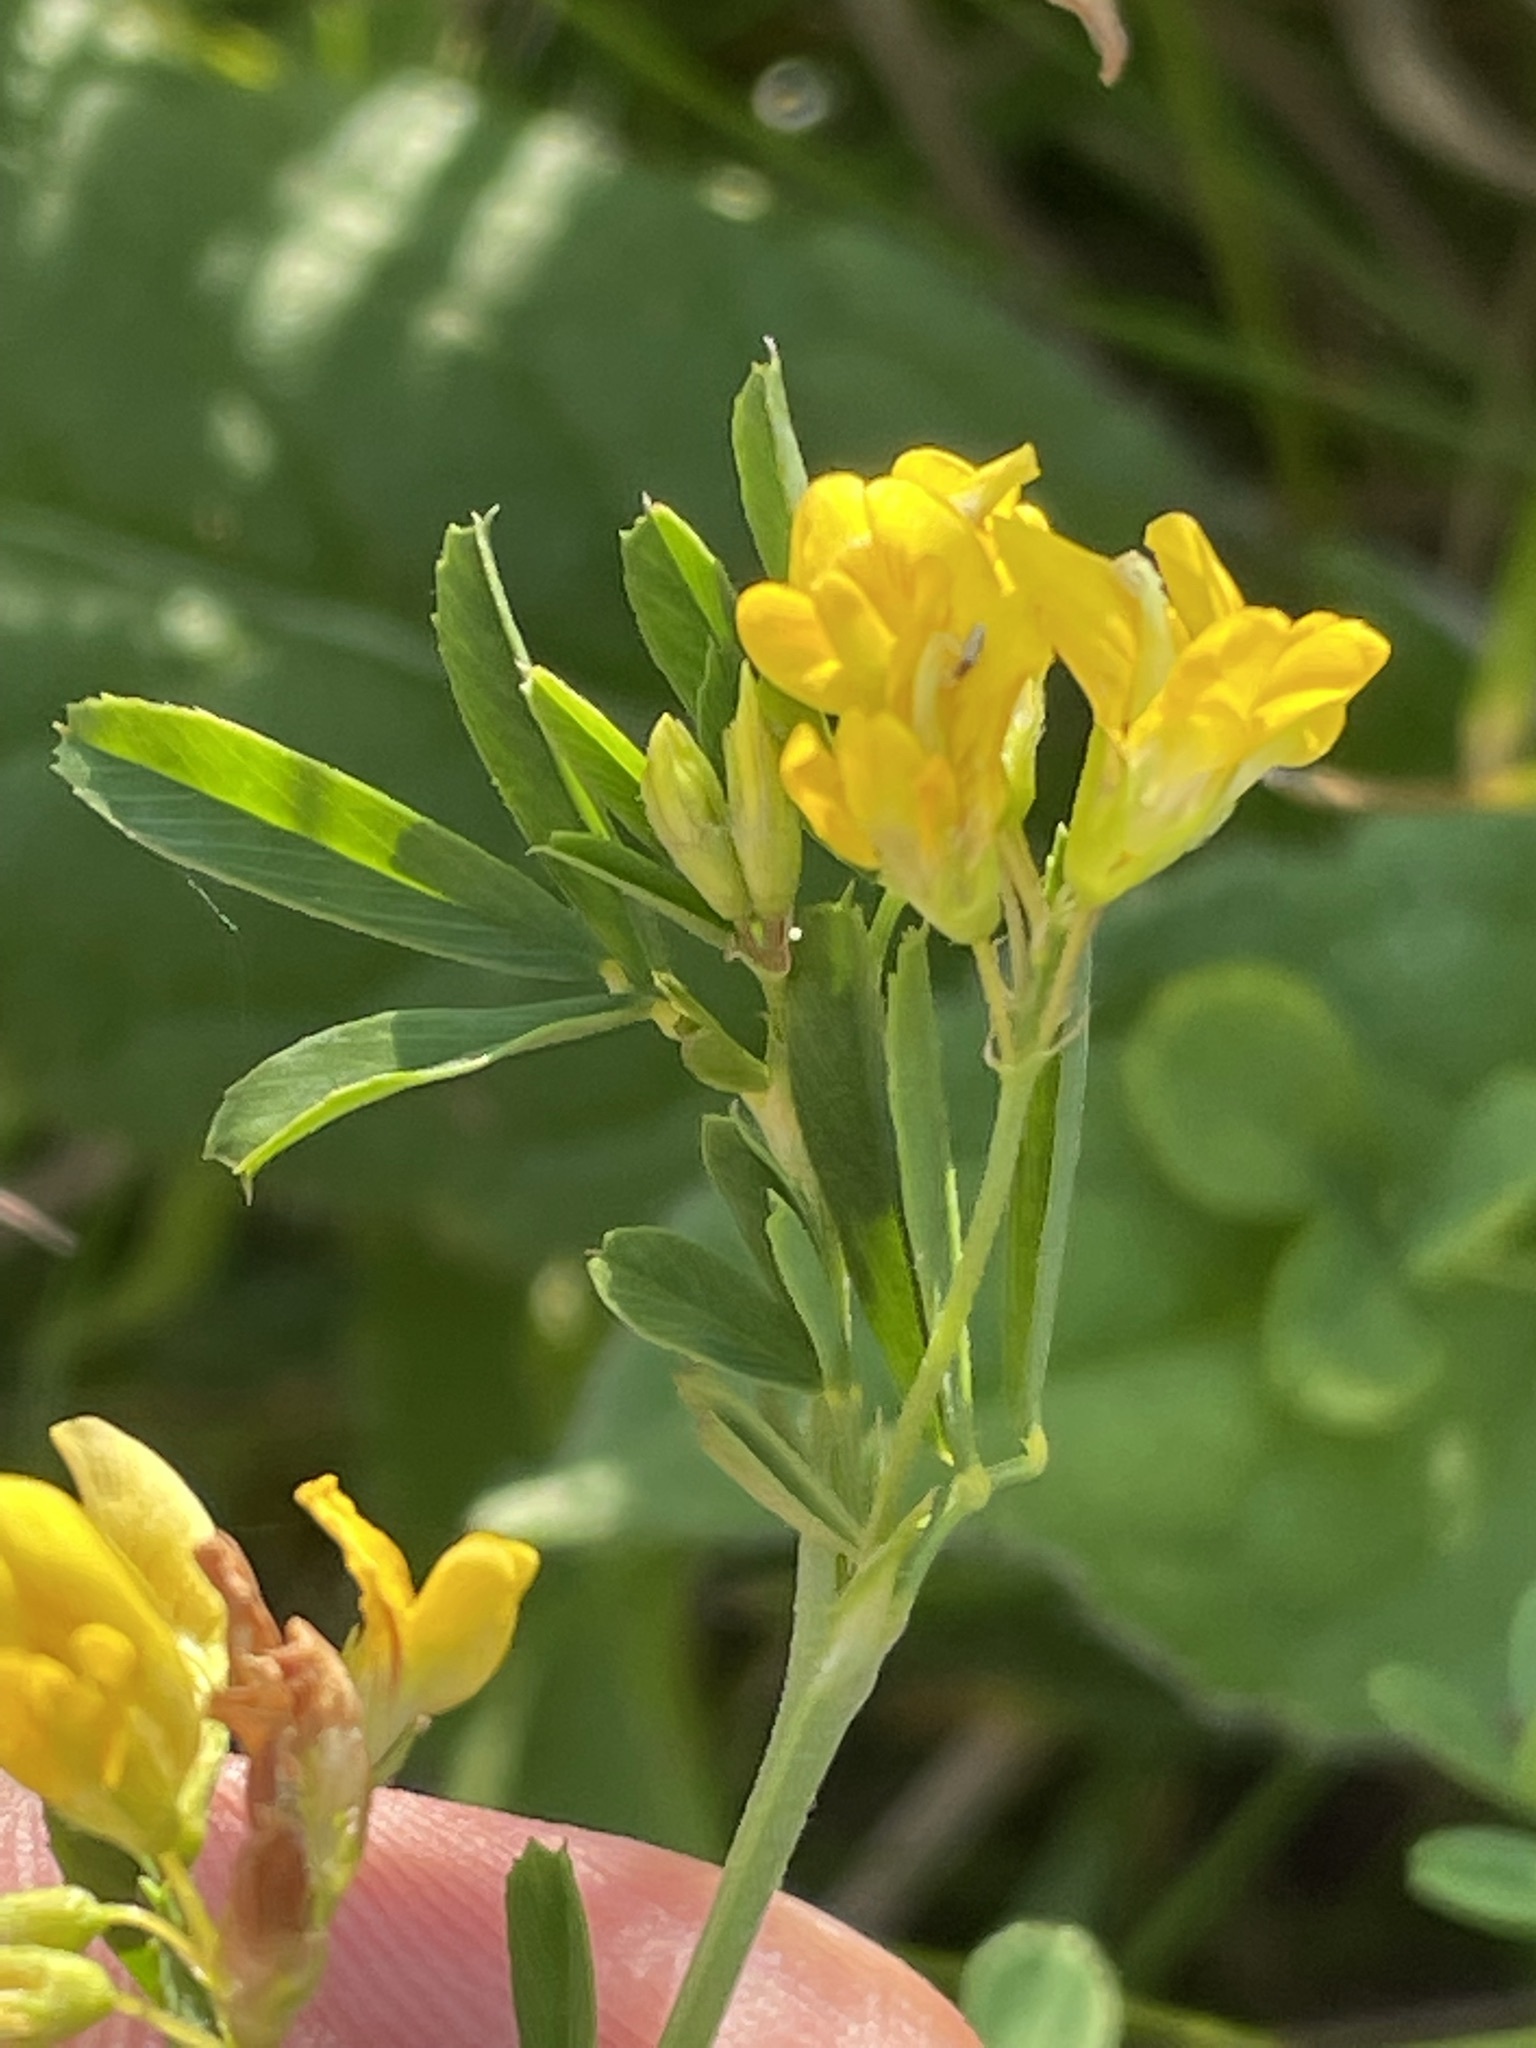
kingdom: Plantae
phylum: Tracheophyta
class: Magnoliopsida
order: Fabales
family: Fabaceae
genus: Medicago
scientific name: Medicago falcata
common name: Sickle medick
